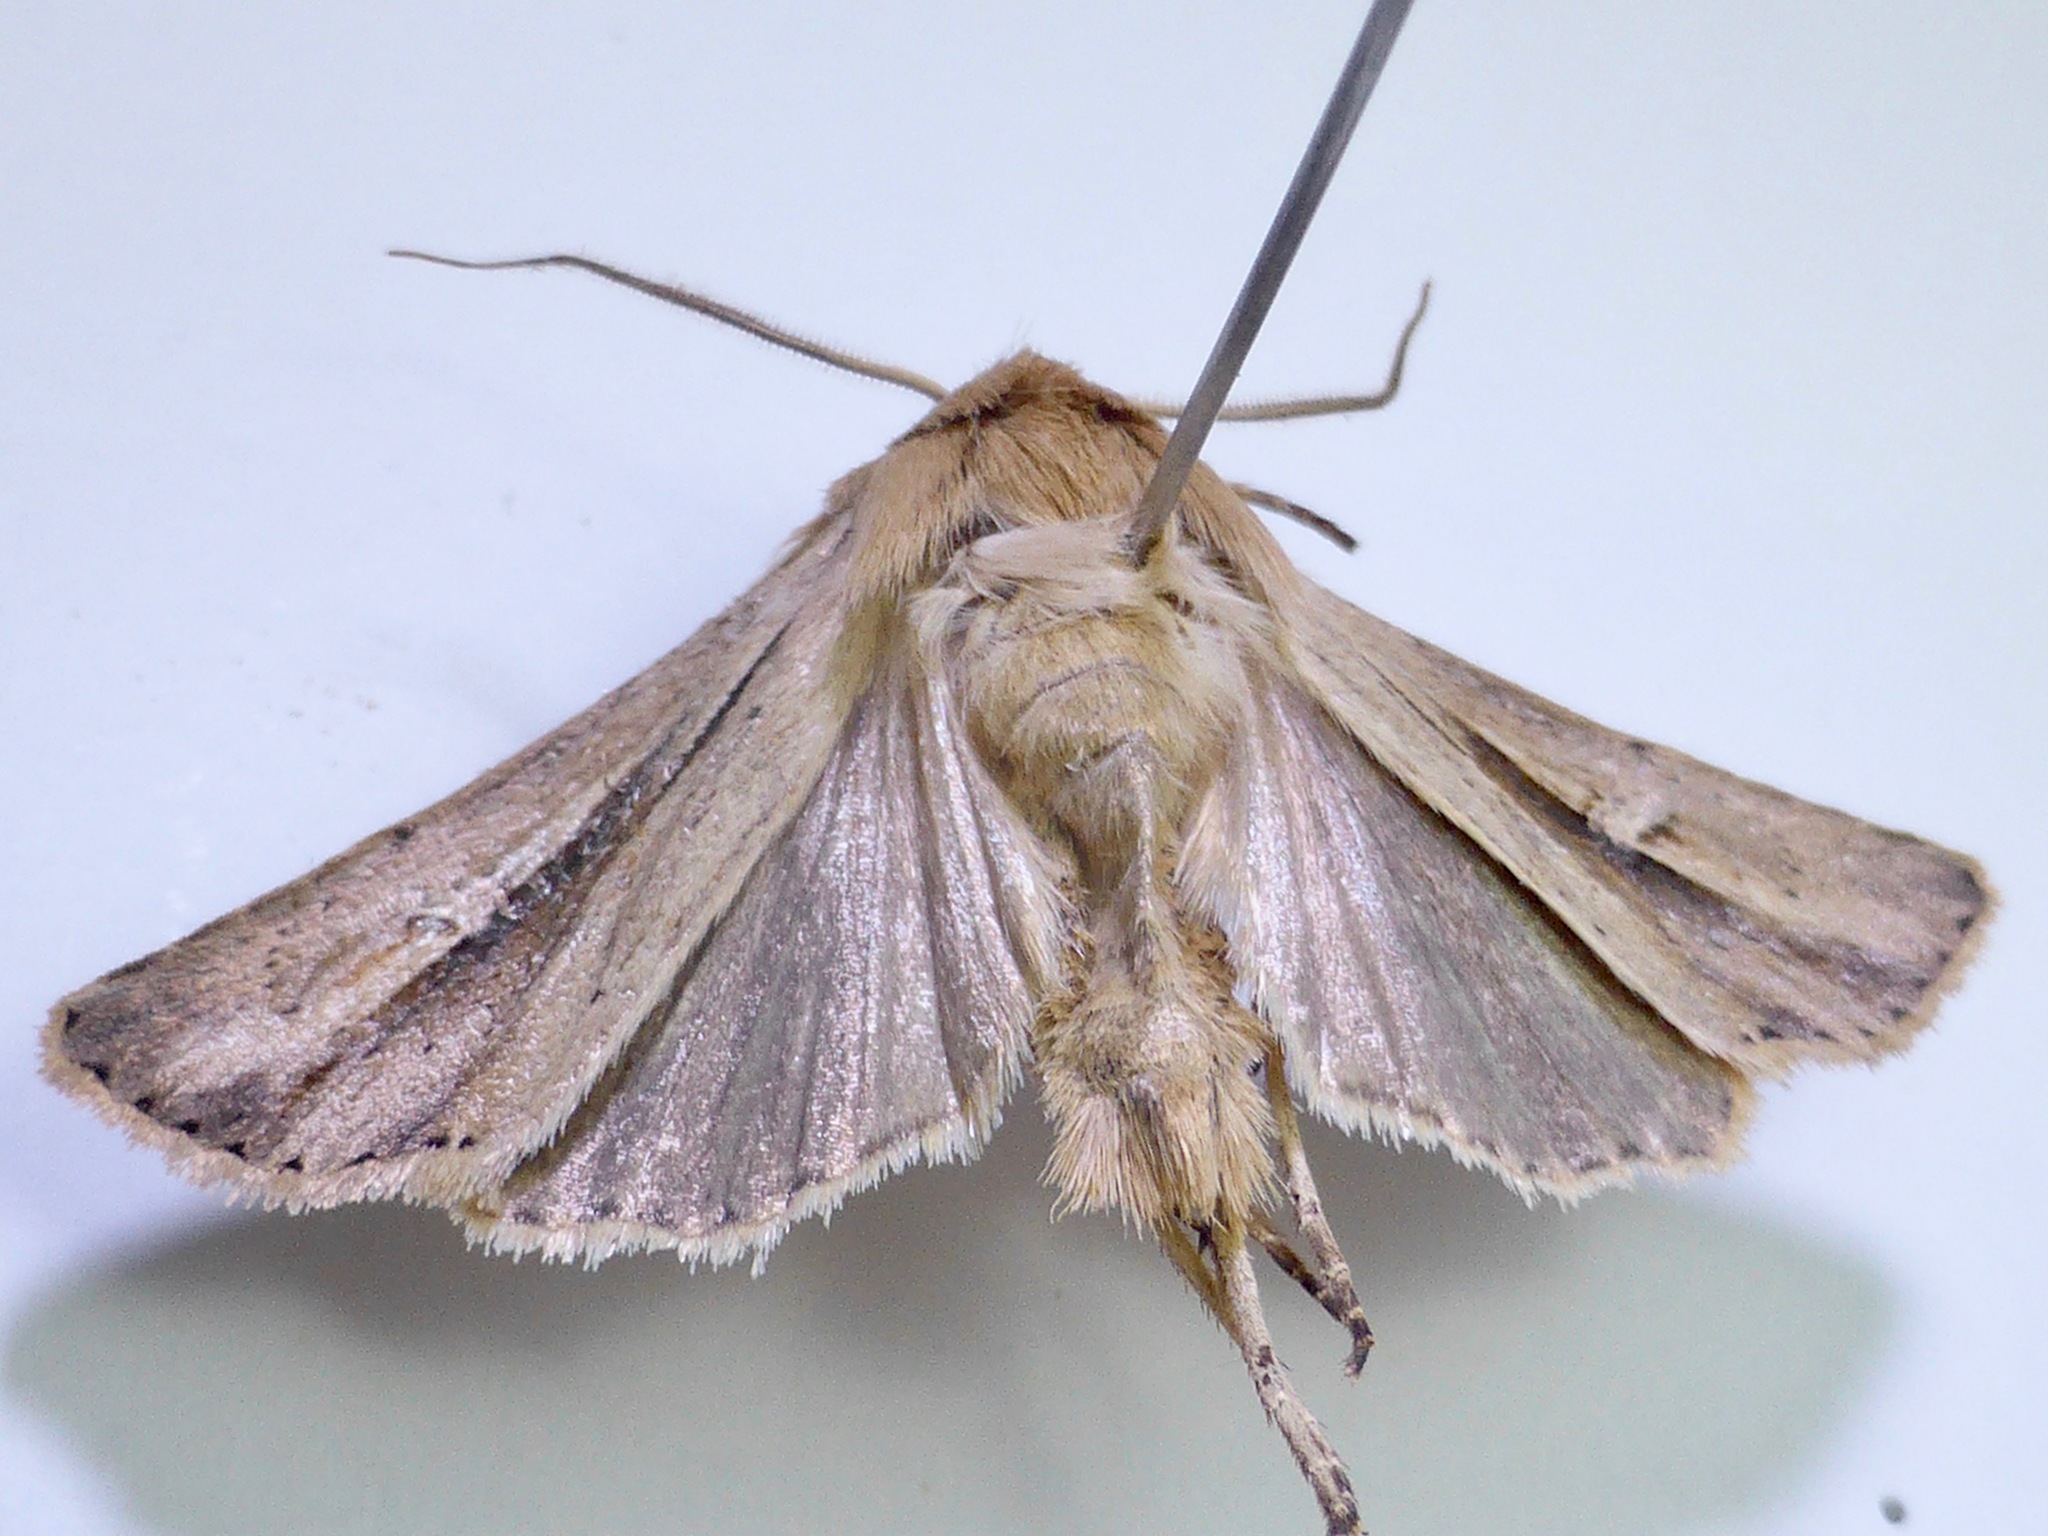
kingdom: Animalia
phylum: Arthropoda
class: Insecta
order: Lepidoptera
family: Noctuidae
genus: Ichneutica
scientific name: Ichneutica propria
